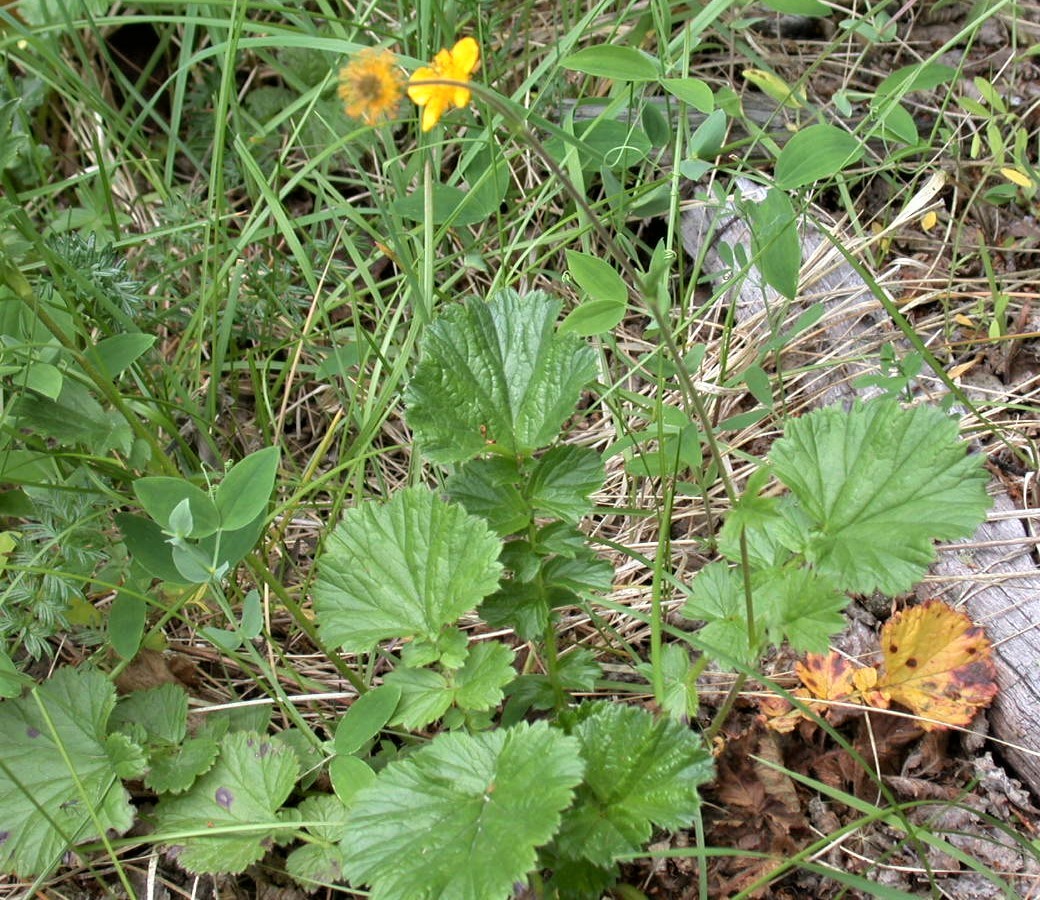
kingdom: Plantae
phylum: Tracheophyta
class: Magnoliopsida
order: Rosales
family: Rosaceae
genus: Geum
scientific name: Geum magellanicum
